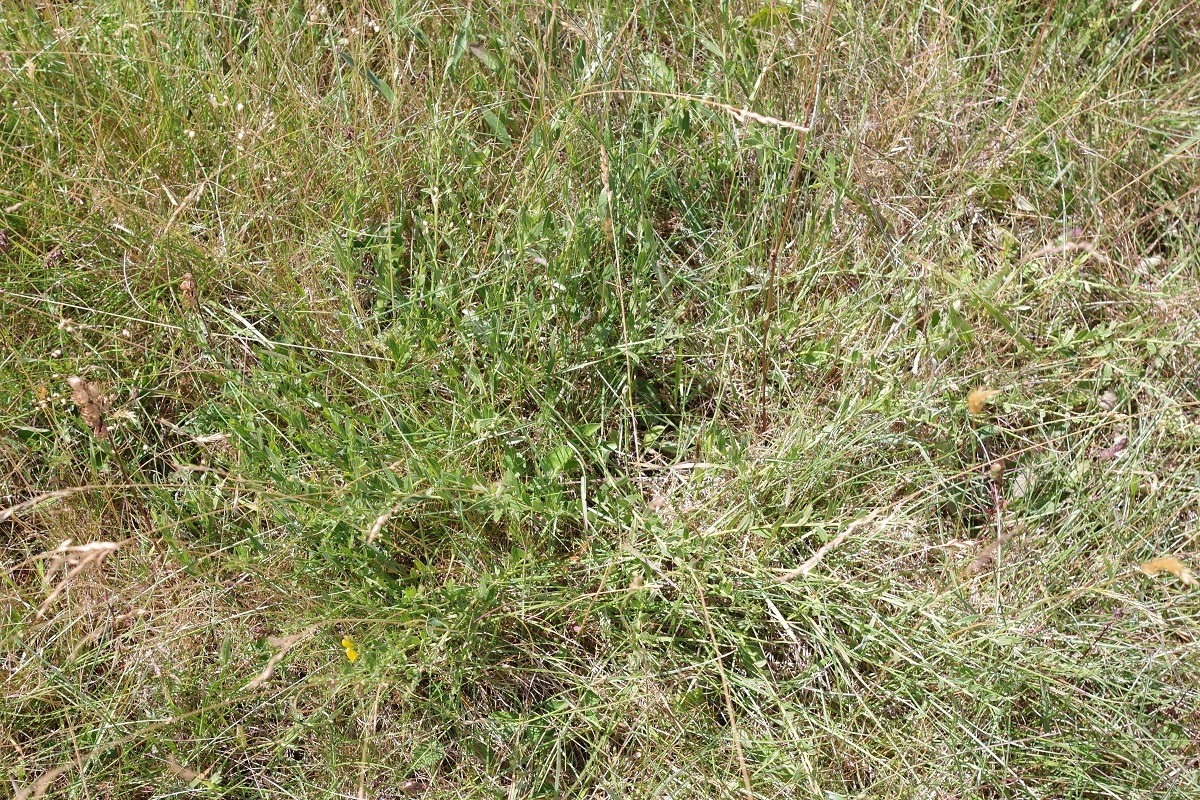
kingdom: Plantae
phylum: Tracheophyta
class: Magnoliopsida
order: Fabales
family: Fabaceae
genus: Genista
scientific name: Genista tinctoria
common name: Dyer's greenweed
